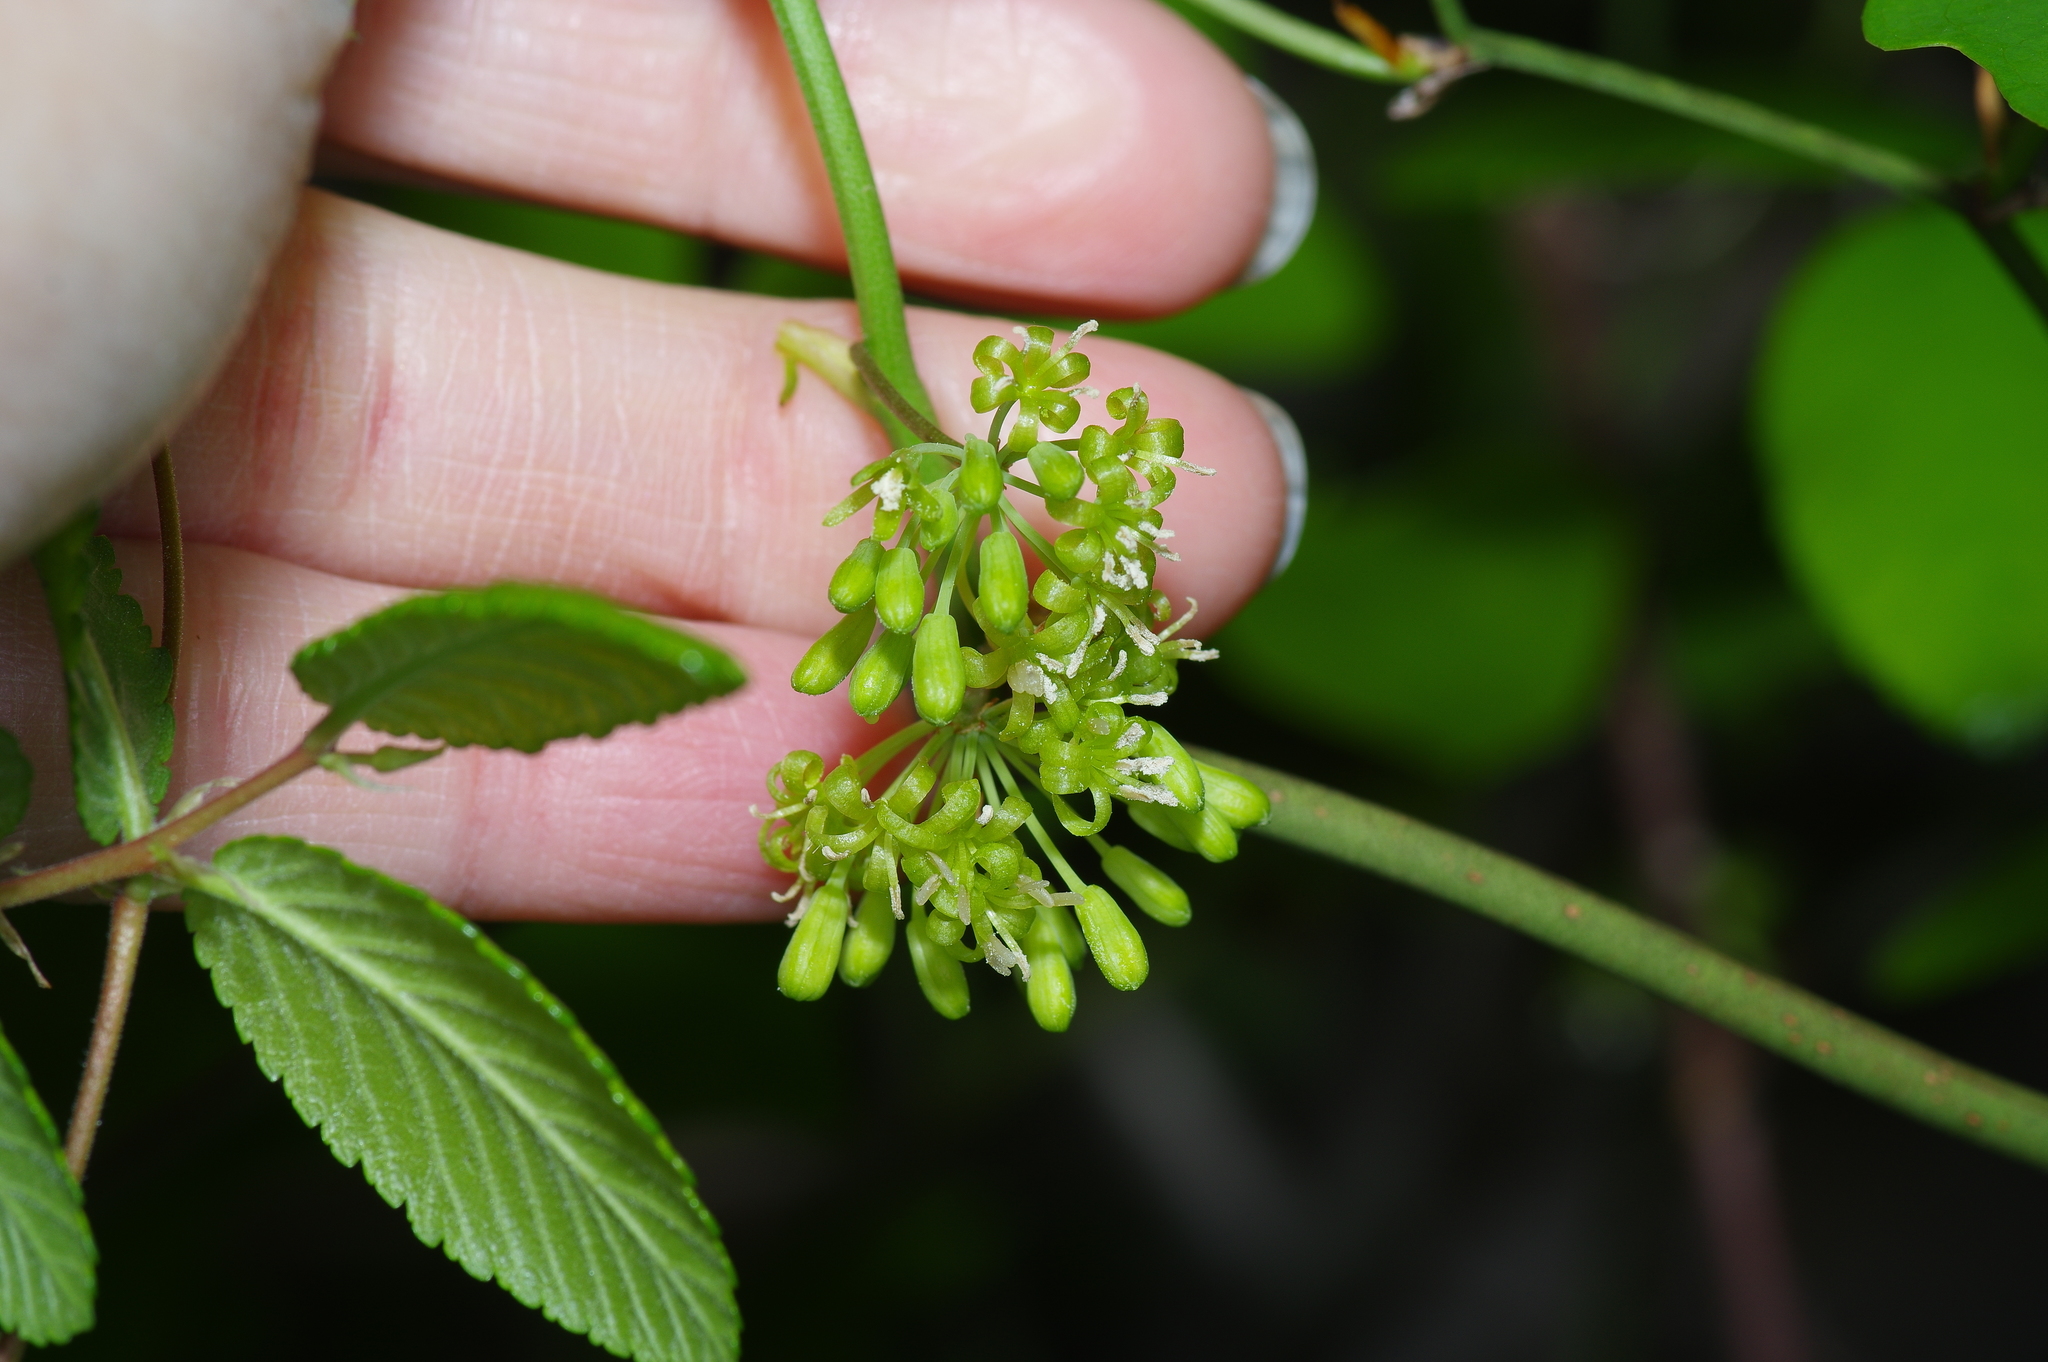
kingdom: Plantae
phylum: Tracheophyta
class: Liliopsida
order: Liliales
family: Smilacaceae
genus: Smilax
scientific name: Smilax bona-nox
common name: Catbrier
